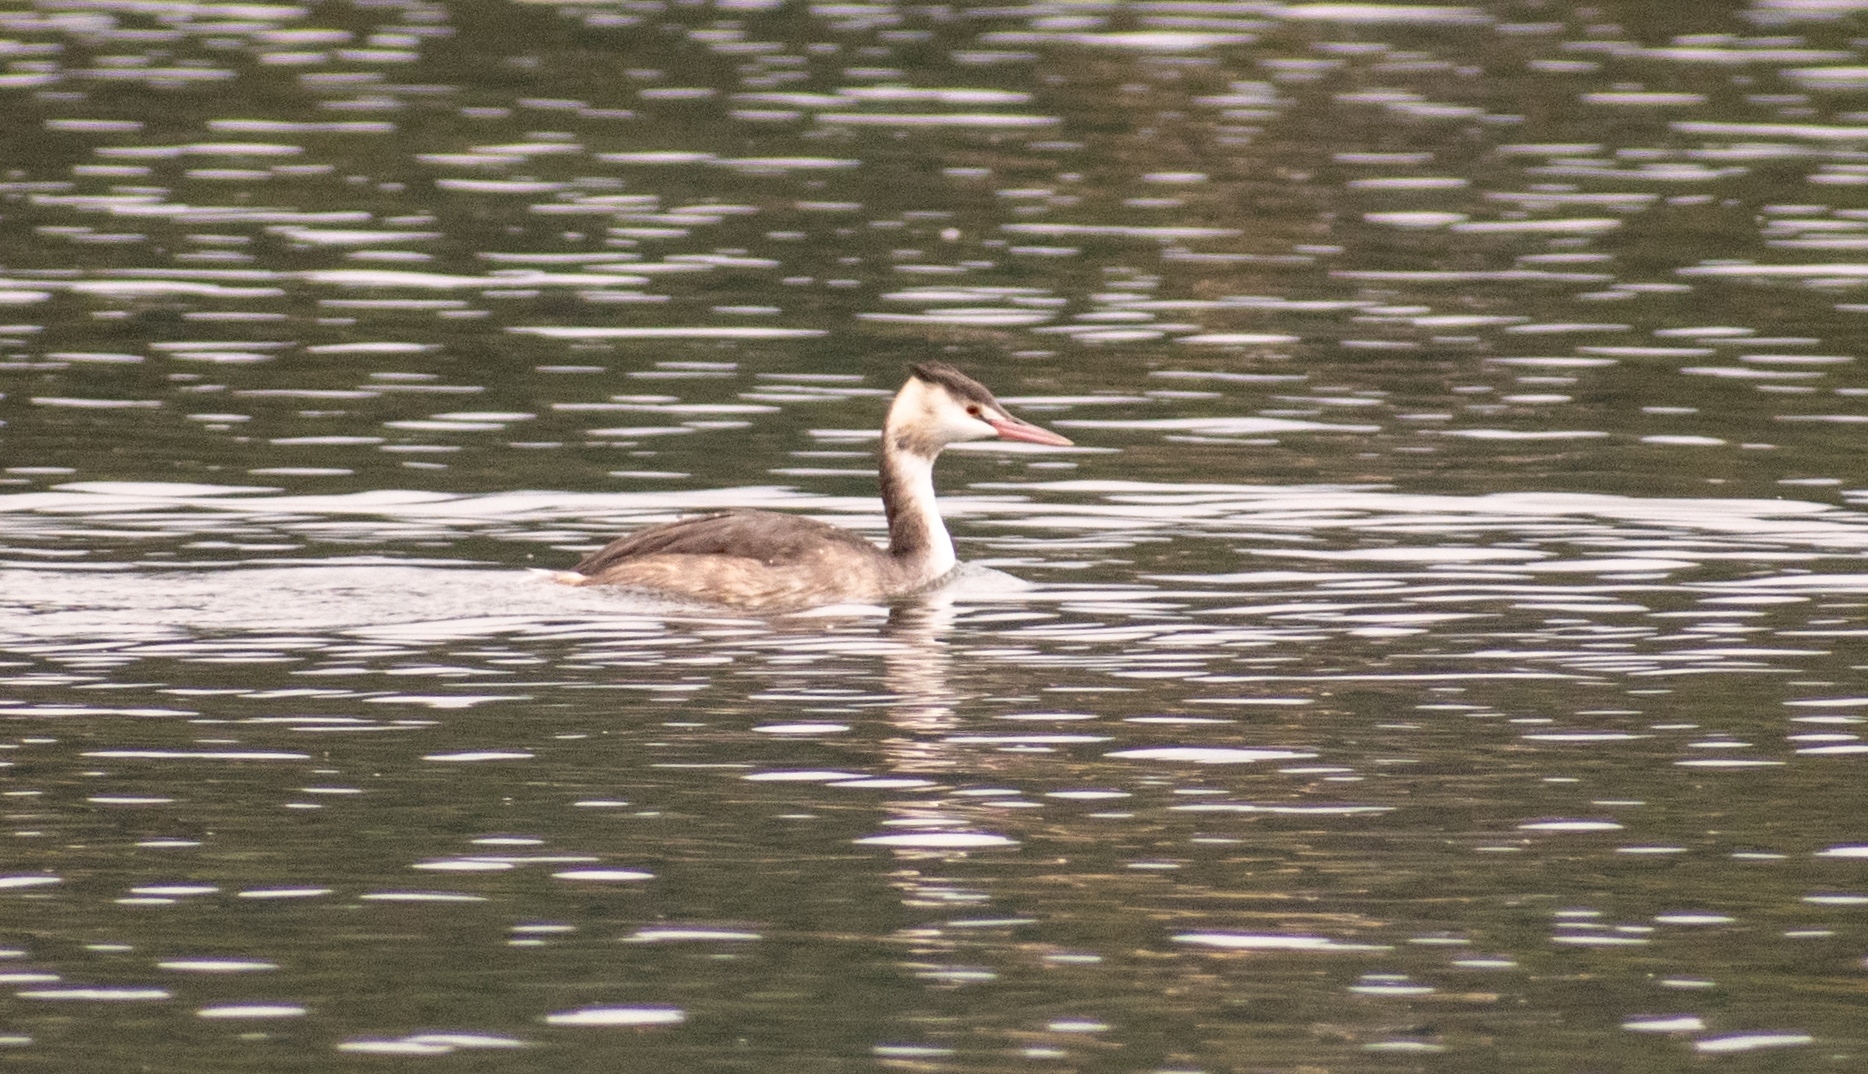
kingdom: Animalia
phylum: Chordata
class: Aves
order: Podicipediformes
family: Podicipedidae
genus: Podiceps
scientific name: Podiceps cristatus
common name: Great crested grebe
